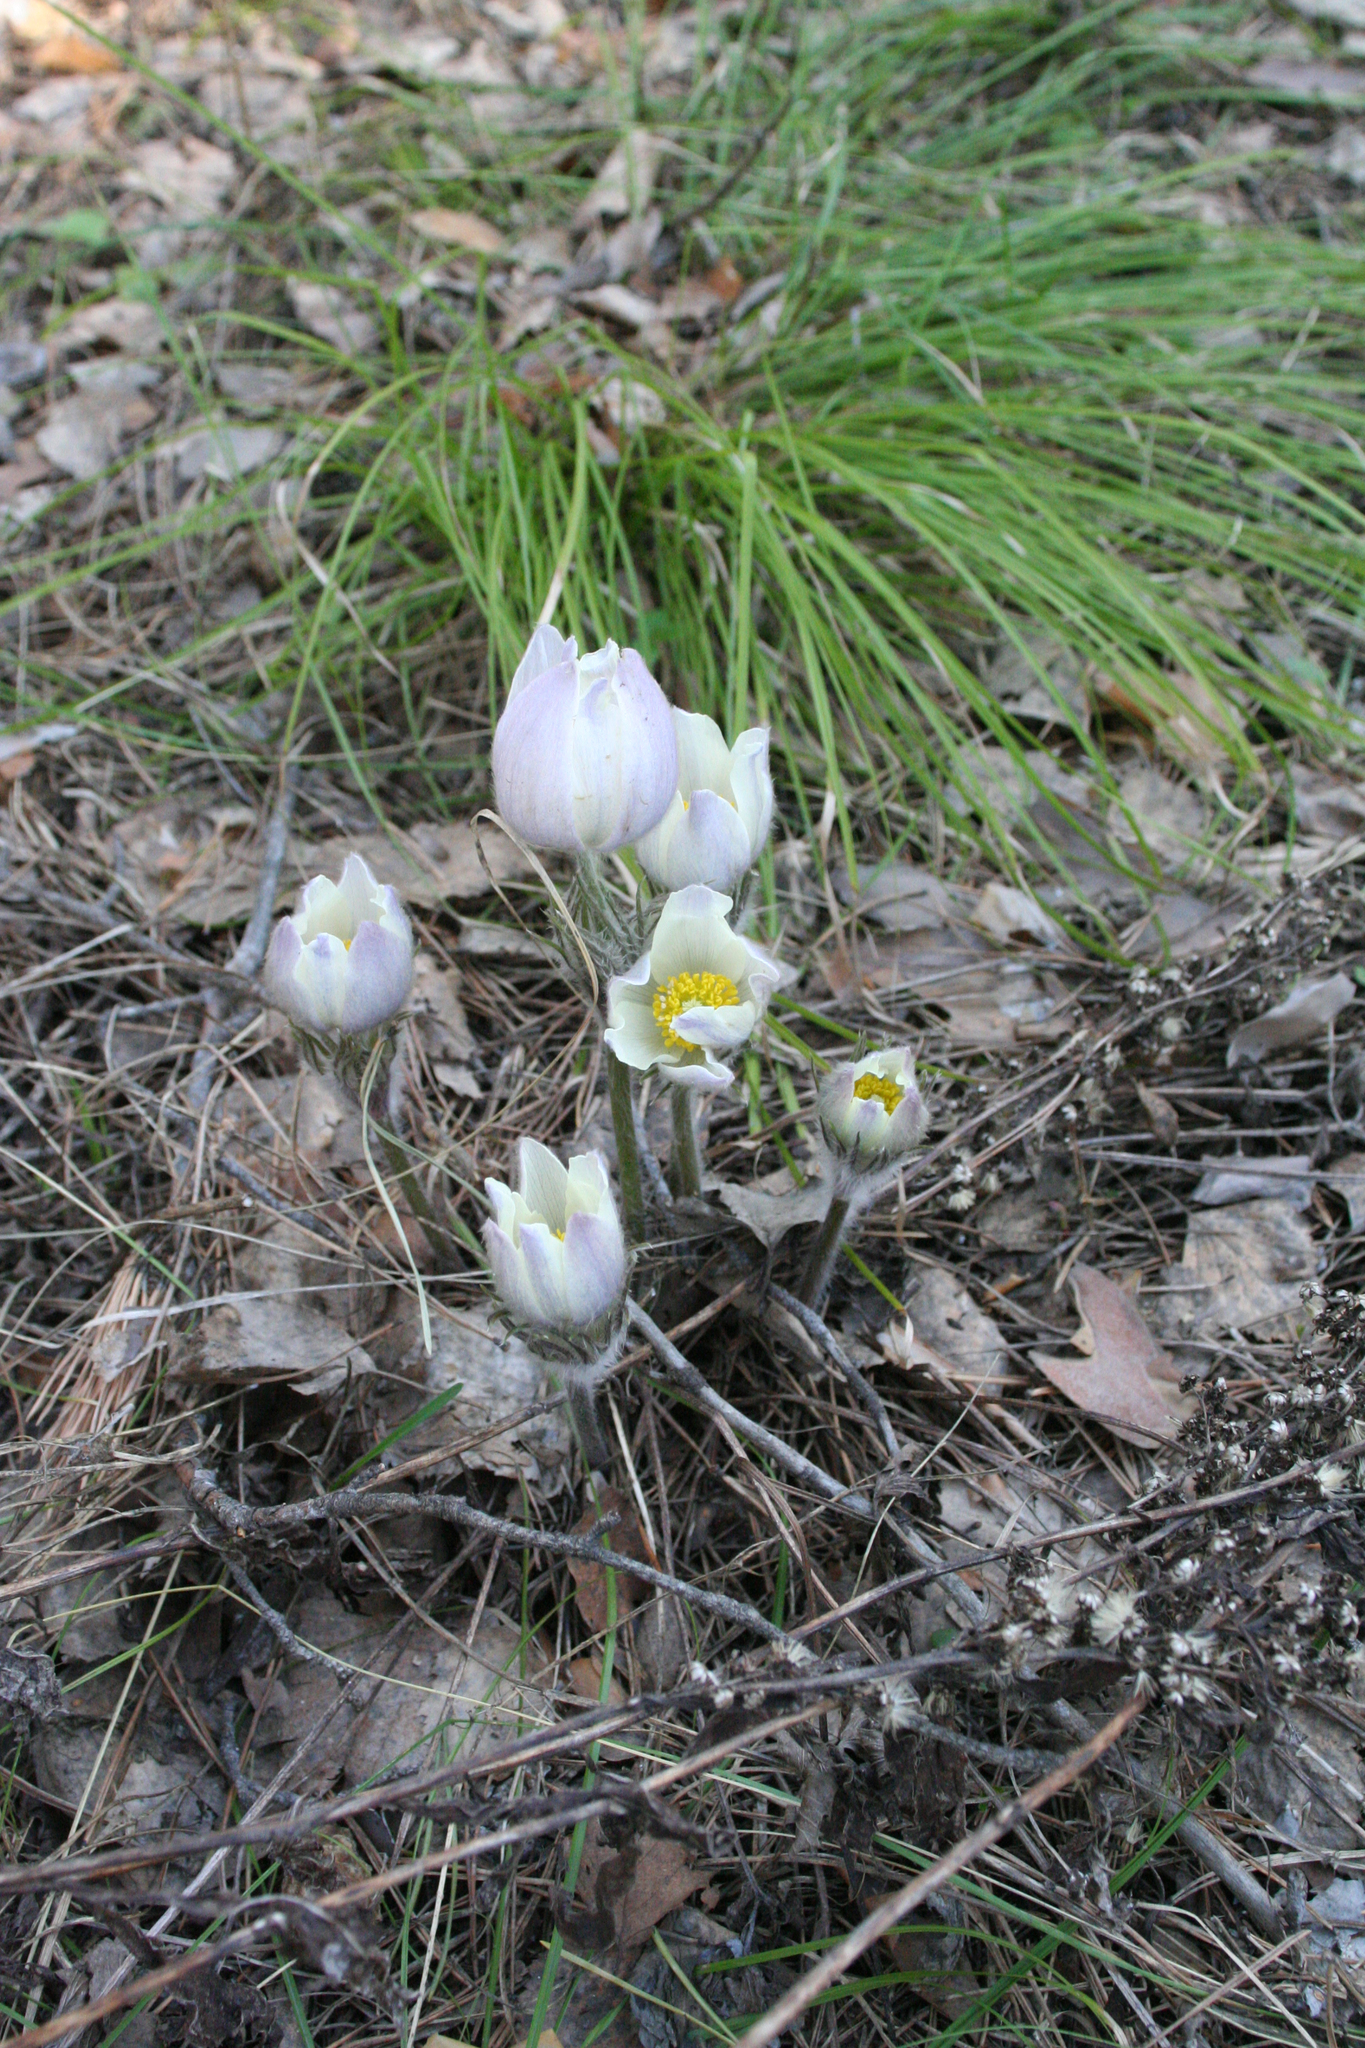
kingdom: Plantae
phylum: Tracheophyta
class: Magnoliopsida
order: Ranunculales
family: Ranunculaceae
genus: Pulsatilla
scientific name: Pulsatilla patens
